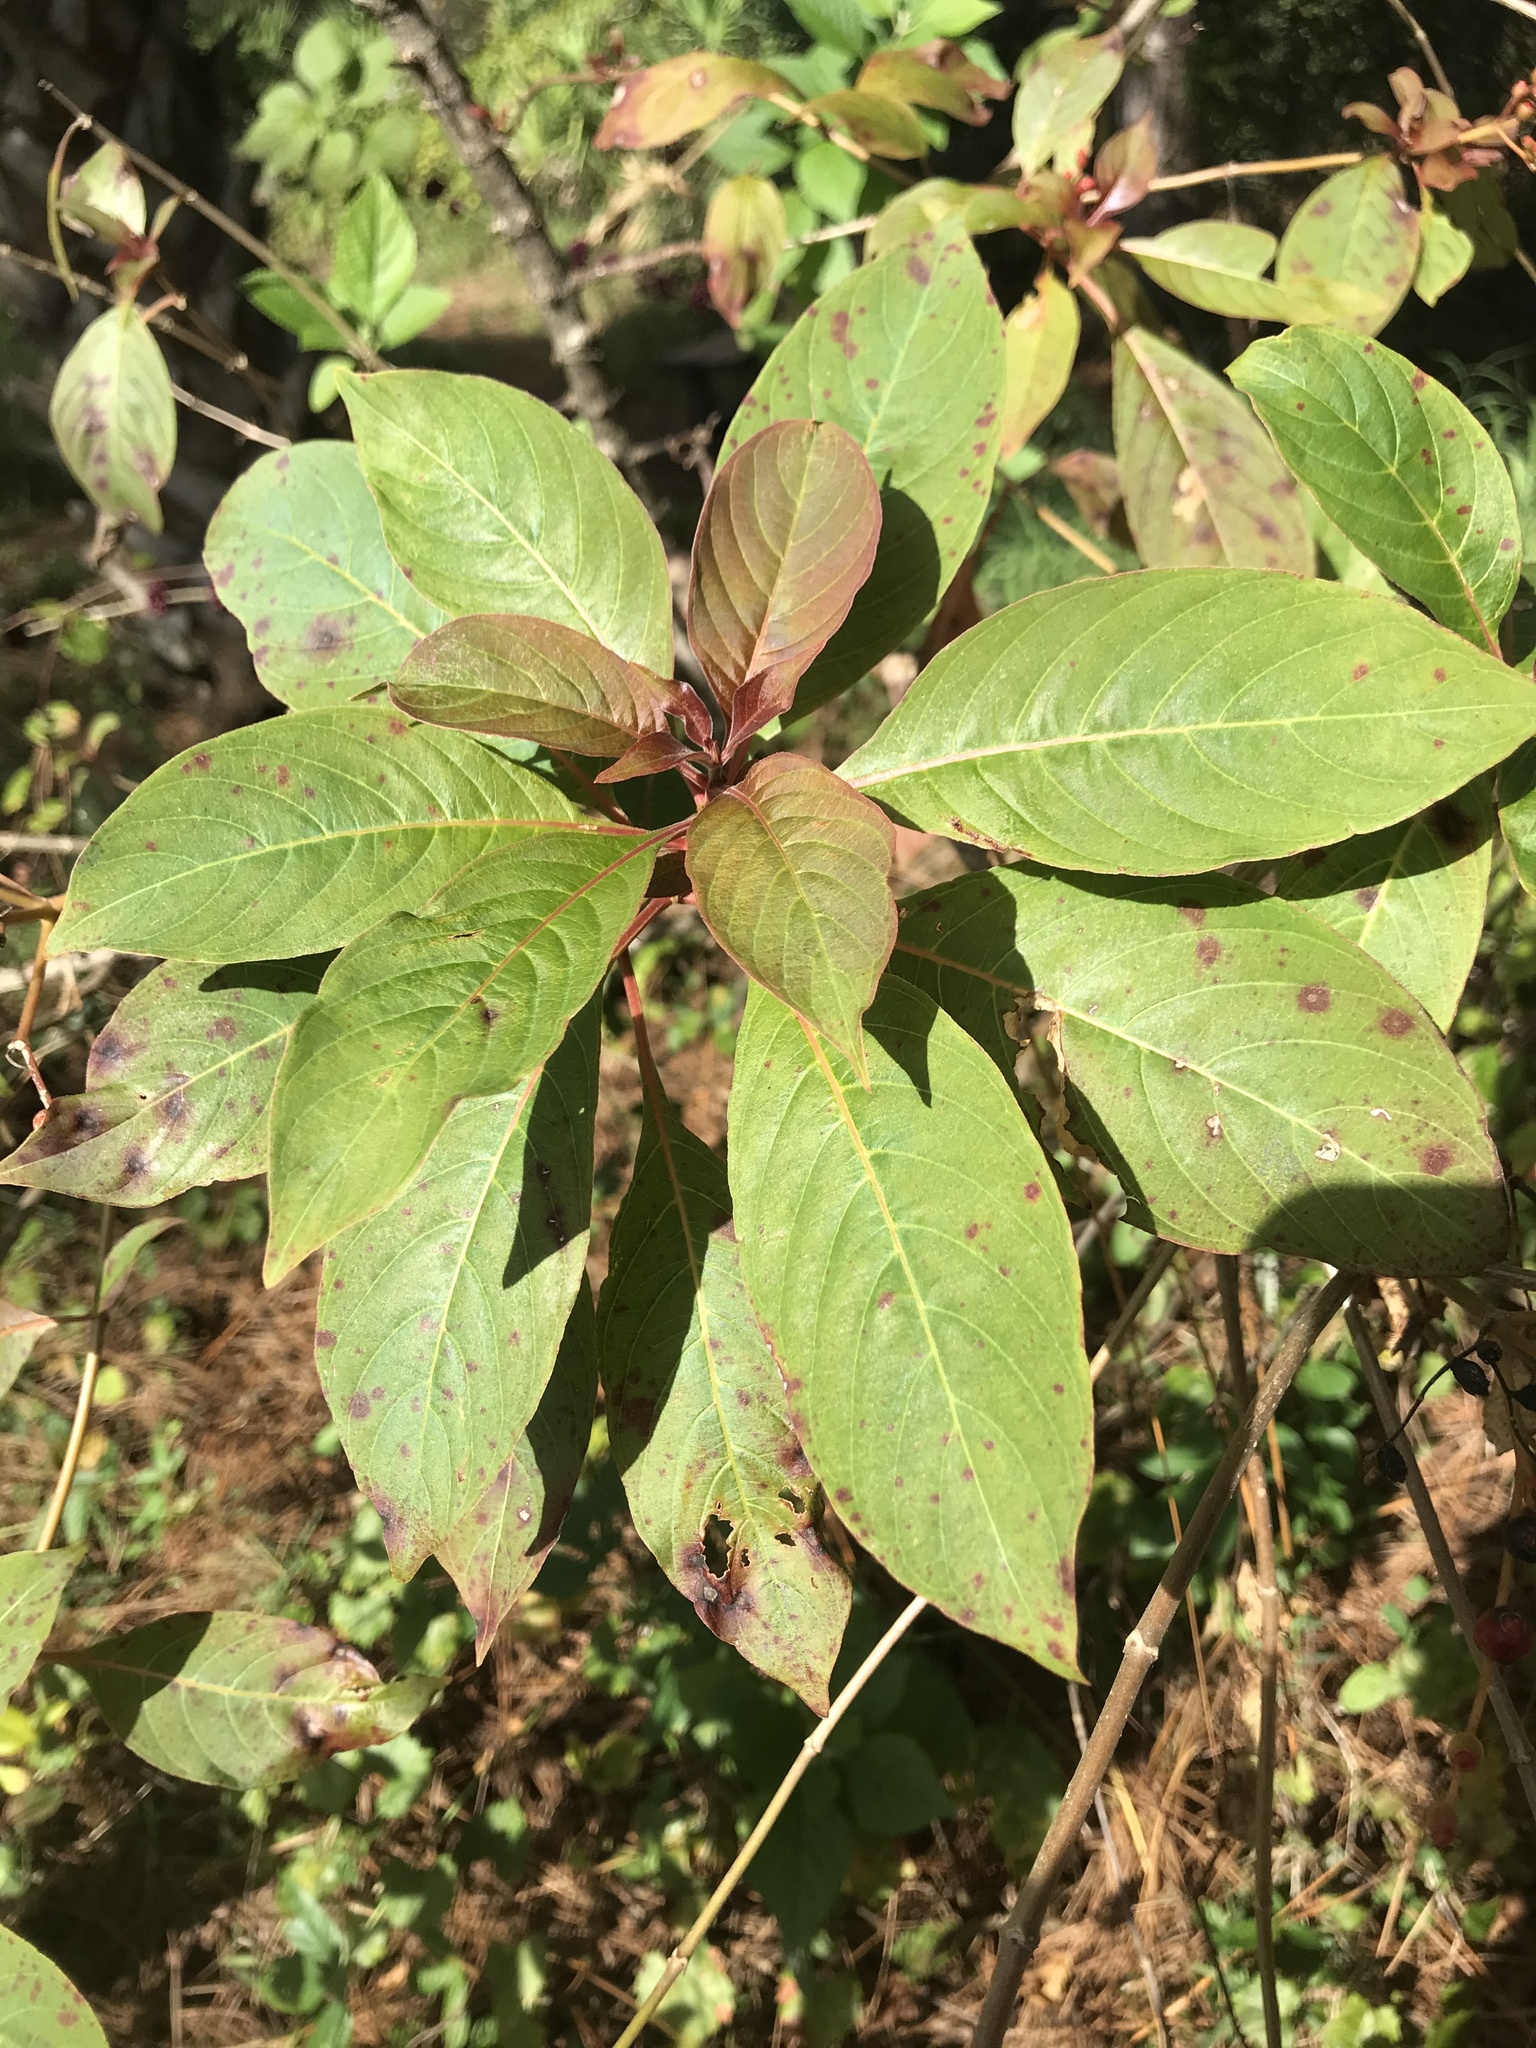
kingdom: Plantae
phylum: Tracheophyta
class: Magnoliopsida
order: Gentianales
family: Rubiaceae
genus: Hamelia
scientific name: Hamelia patens
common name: Redhead
